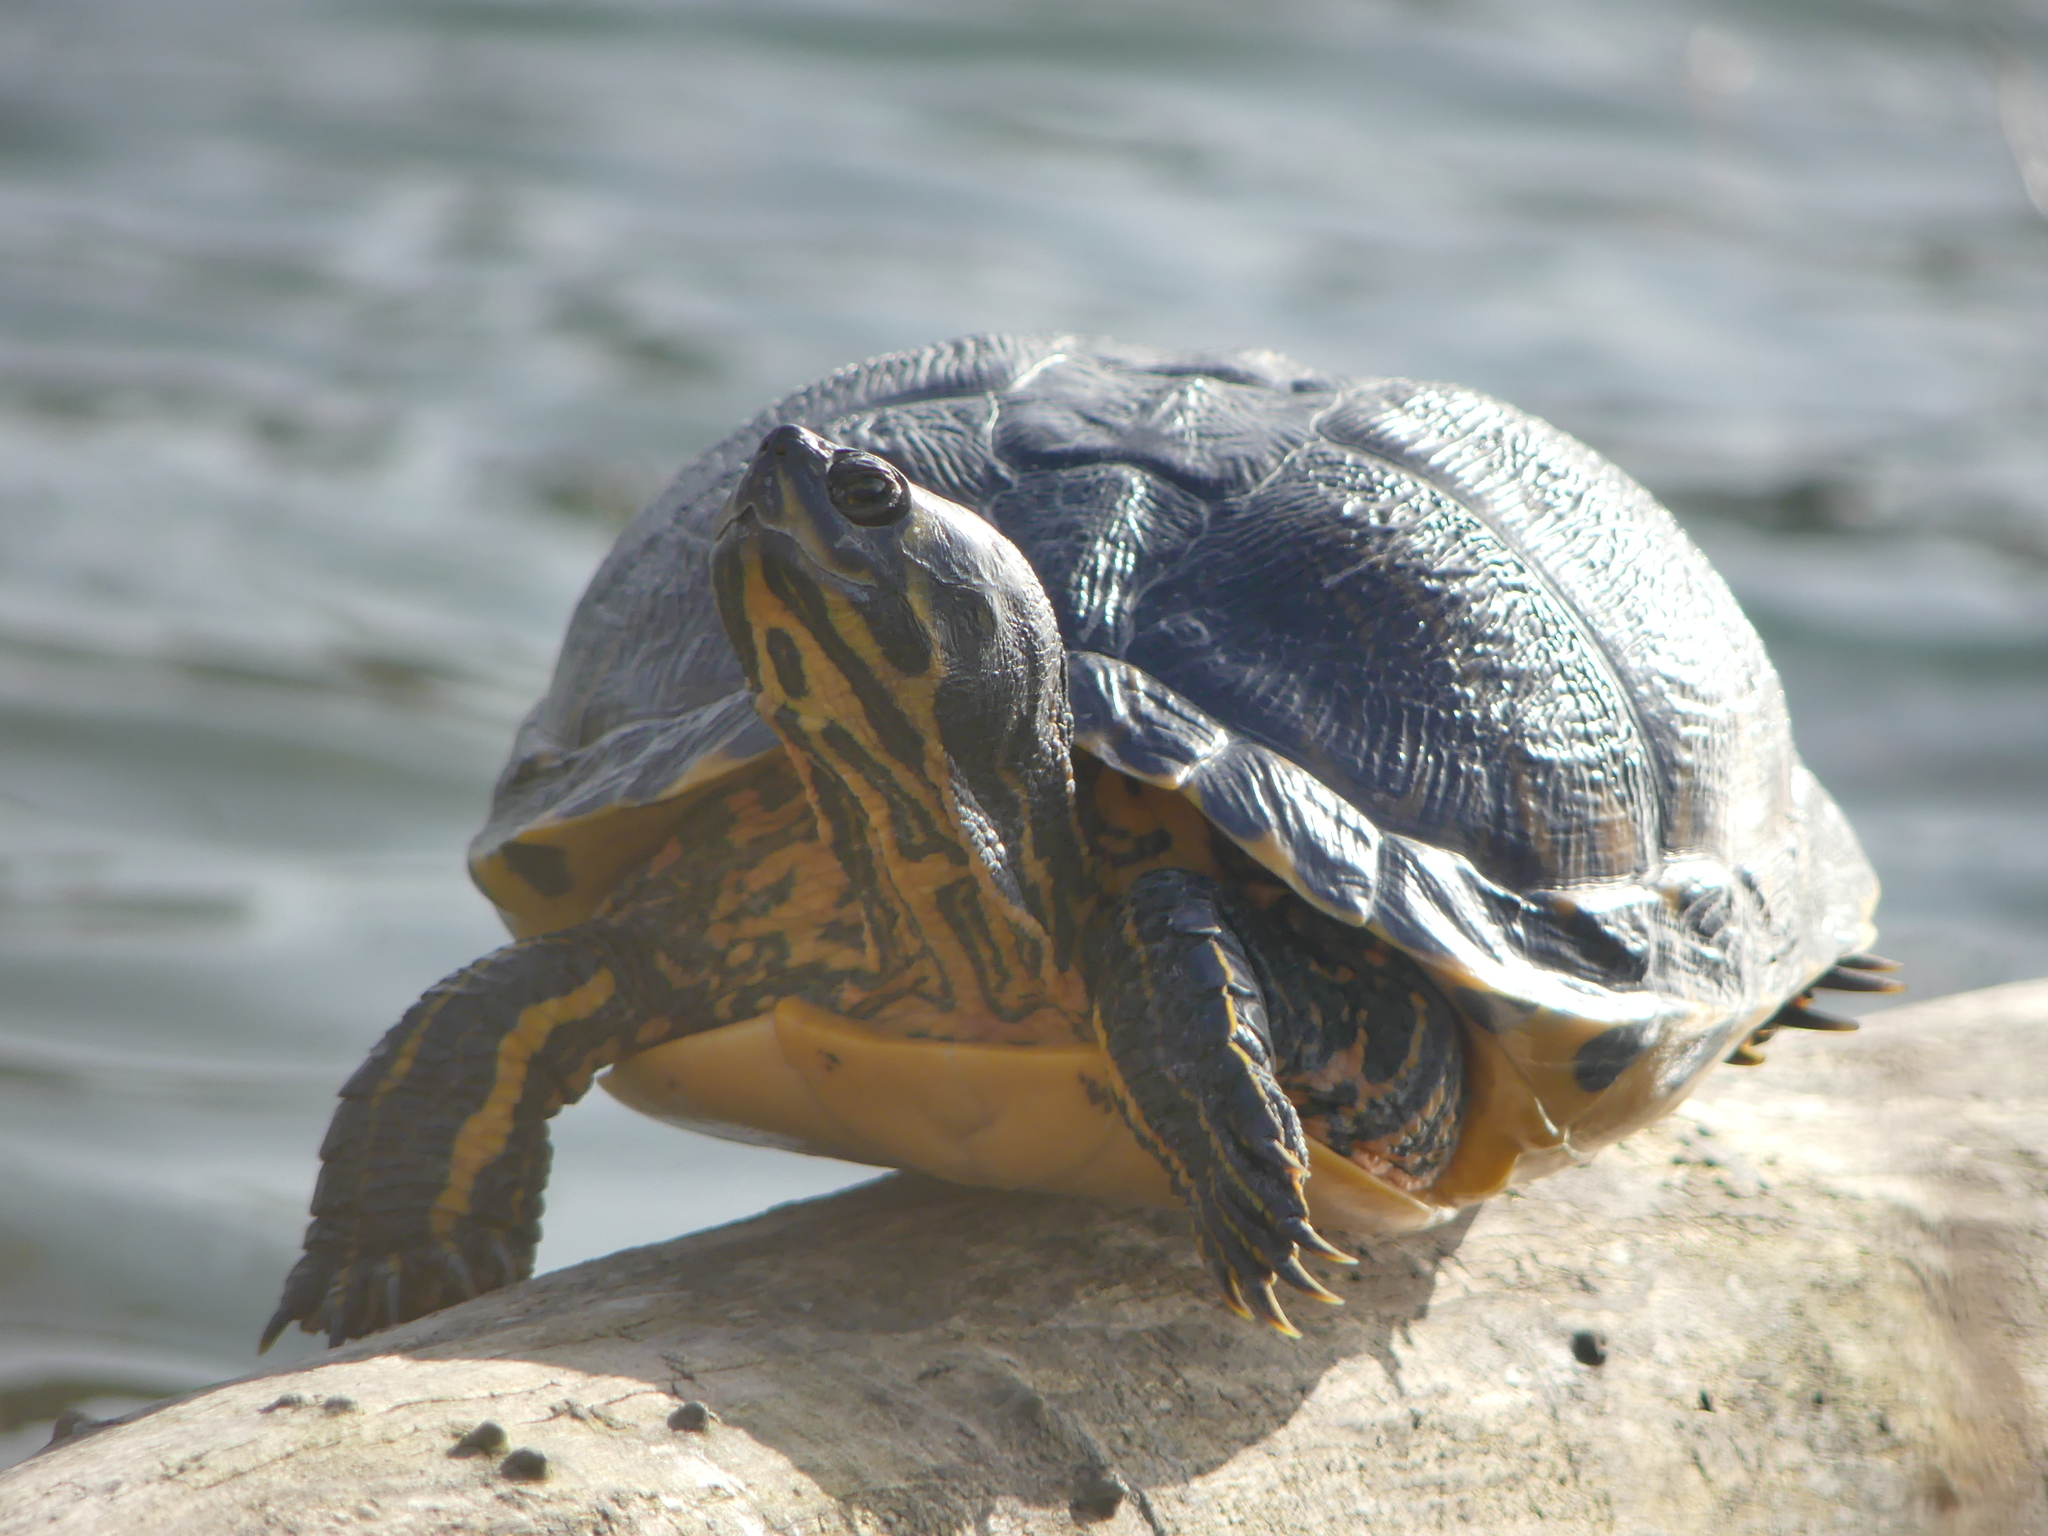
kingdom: Animalia
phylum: Chordata
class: Testudines
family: Emydidae
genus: Trachemys
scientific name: Trachemys scripta
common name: Slider
